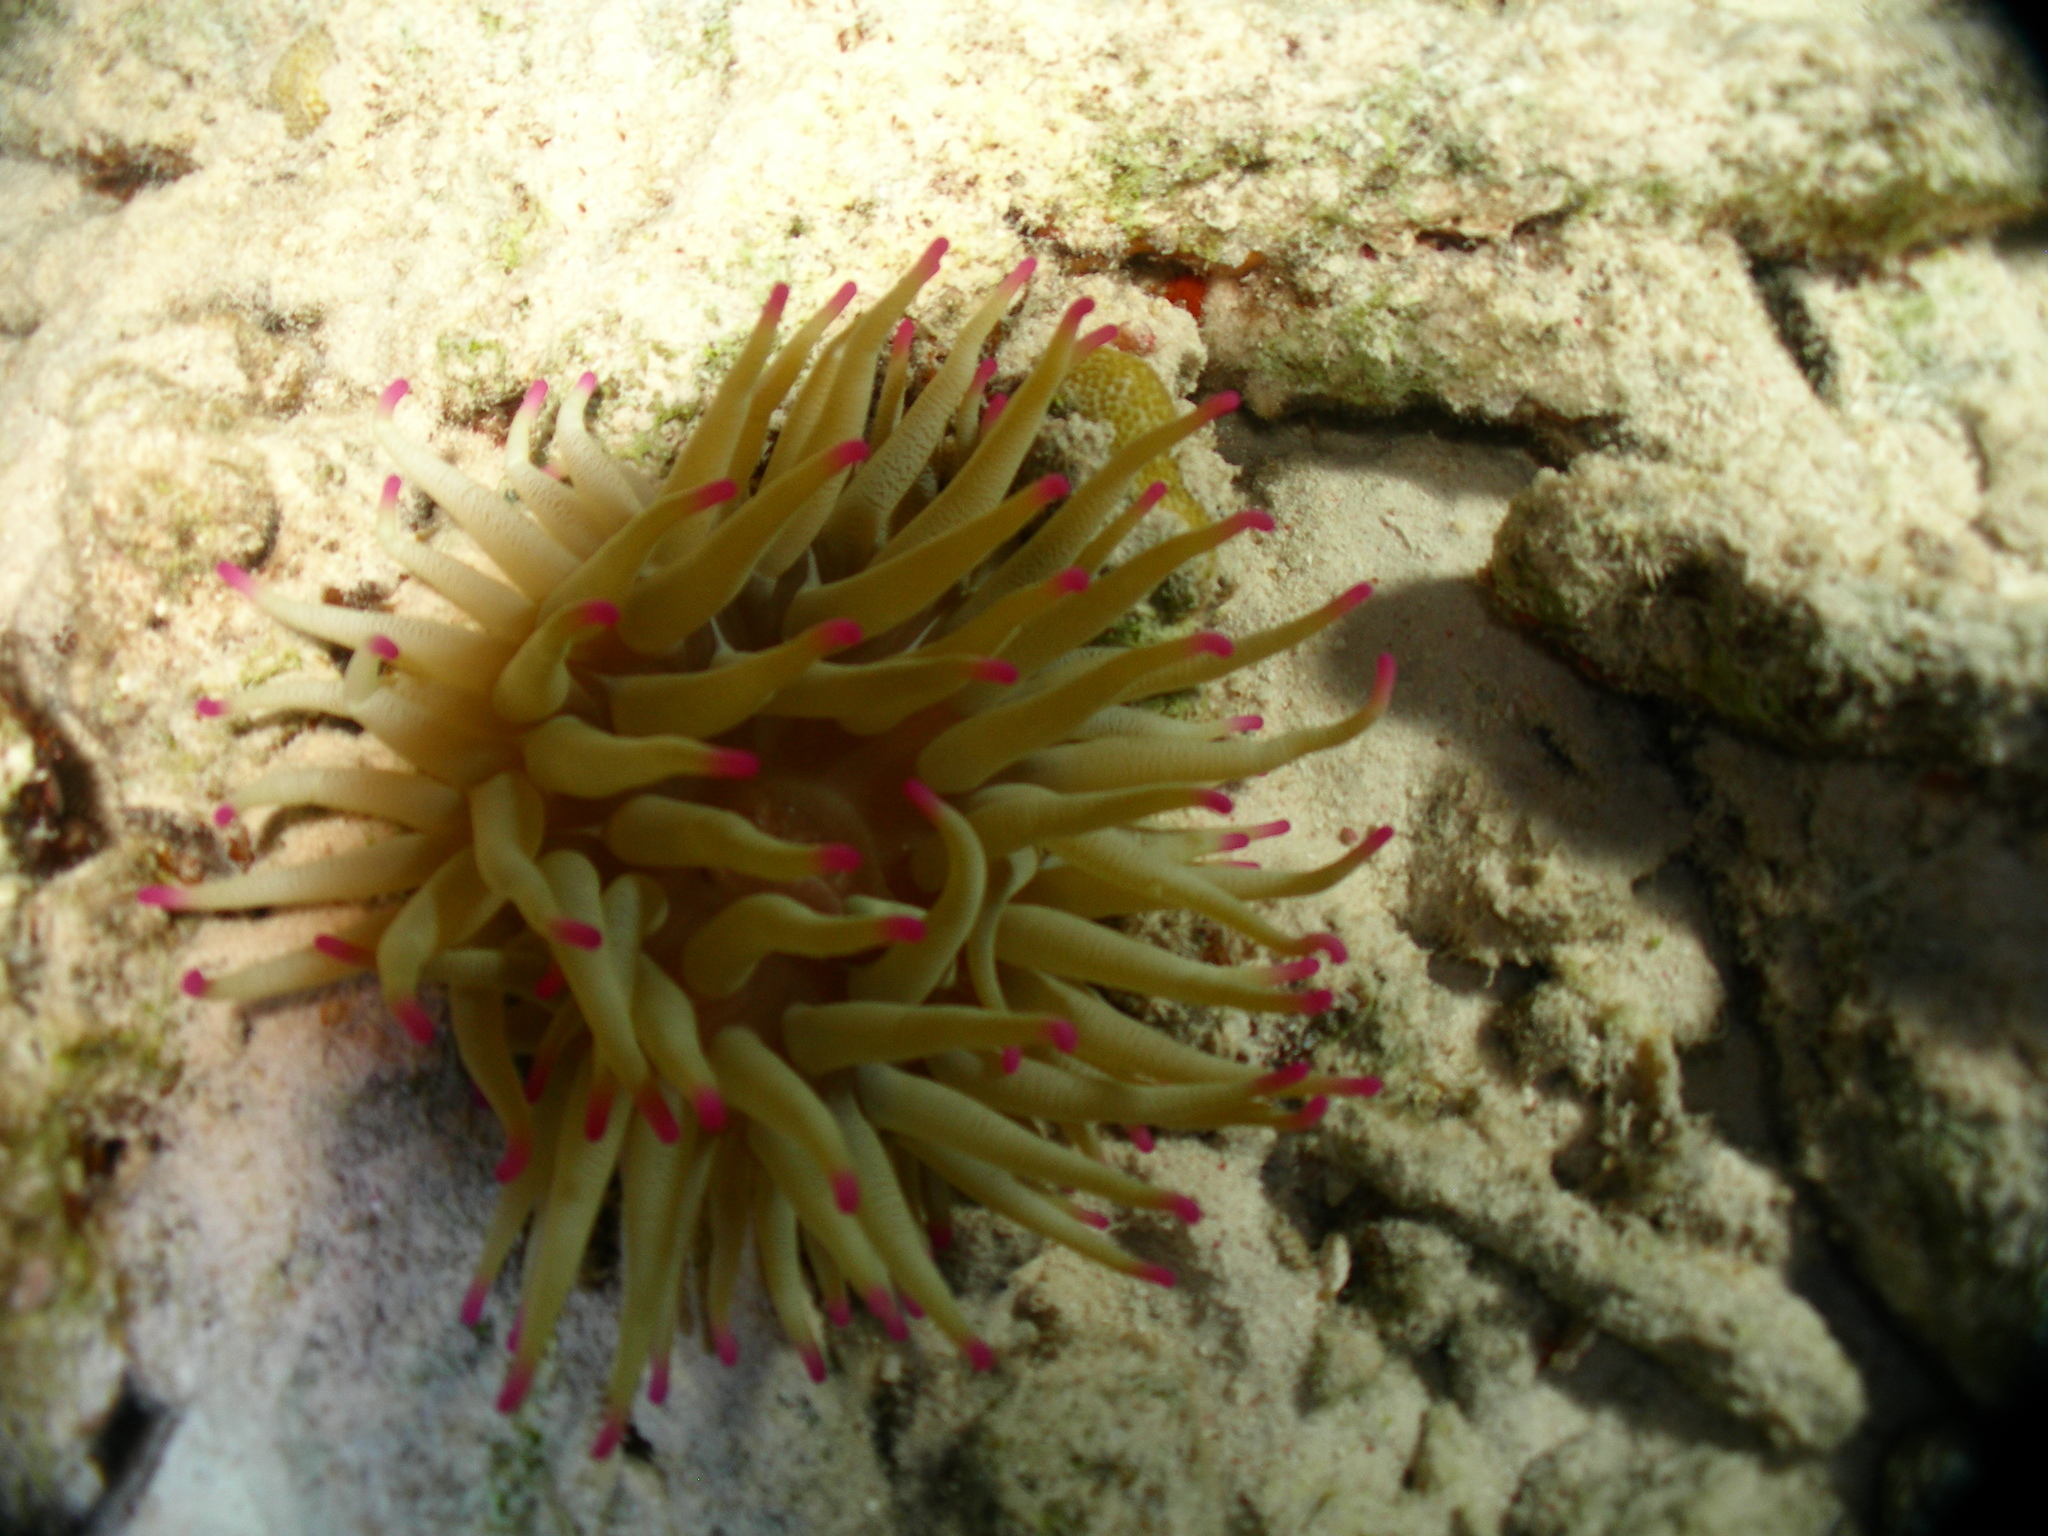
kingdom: Animalia
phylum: Cnidaria
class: Anthozoa
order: Actiniaria
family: Actiniidae
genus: Condylactis
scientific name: Condylactis gigantea
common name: Giant caribbean anemone
